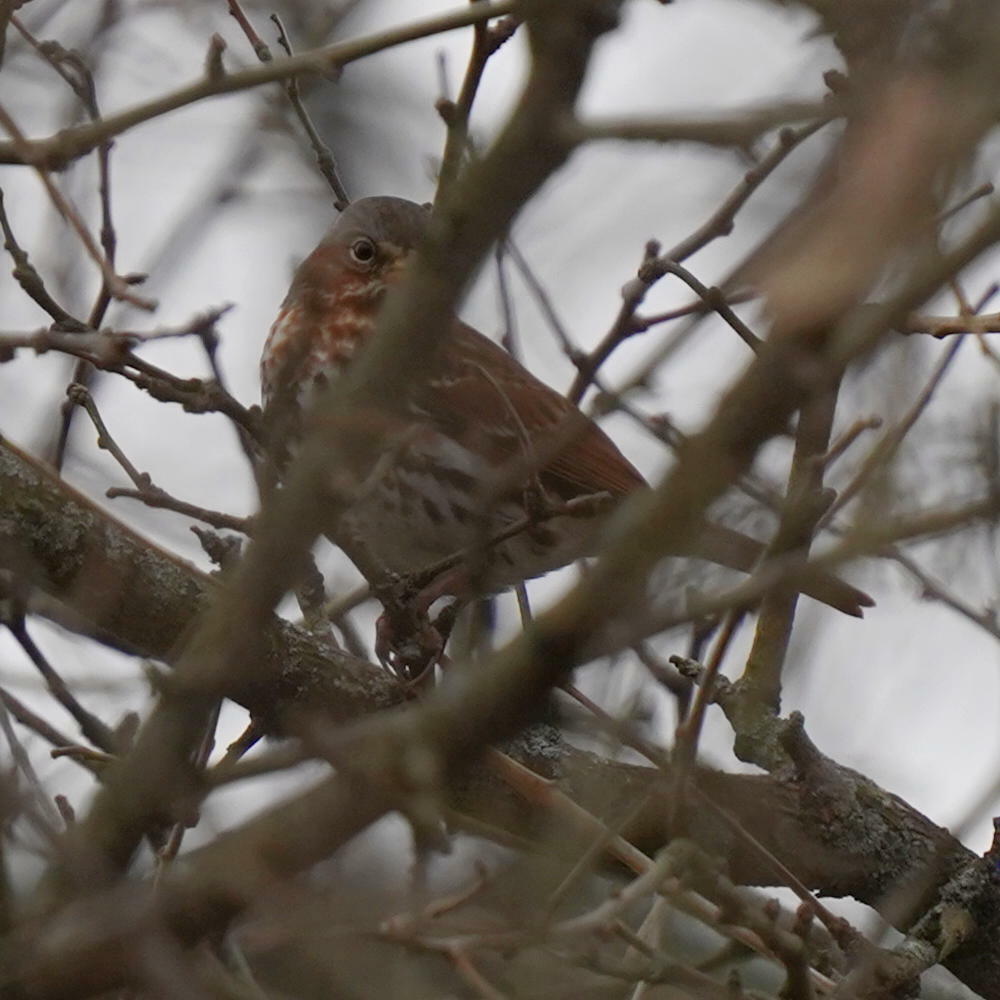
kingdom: Animalia
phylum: Chordata
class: Aves
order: Passeriformes
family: Passerellidae
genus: Passerella
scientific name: Passerella iliaca
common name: Fox sparrow
